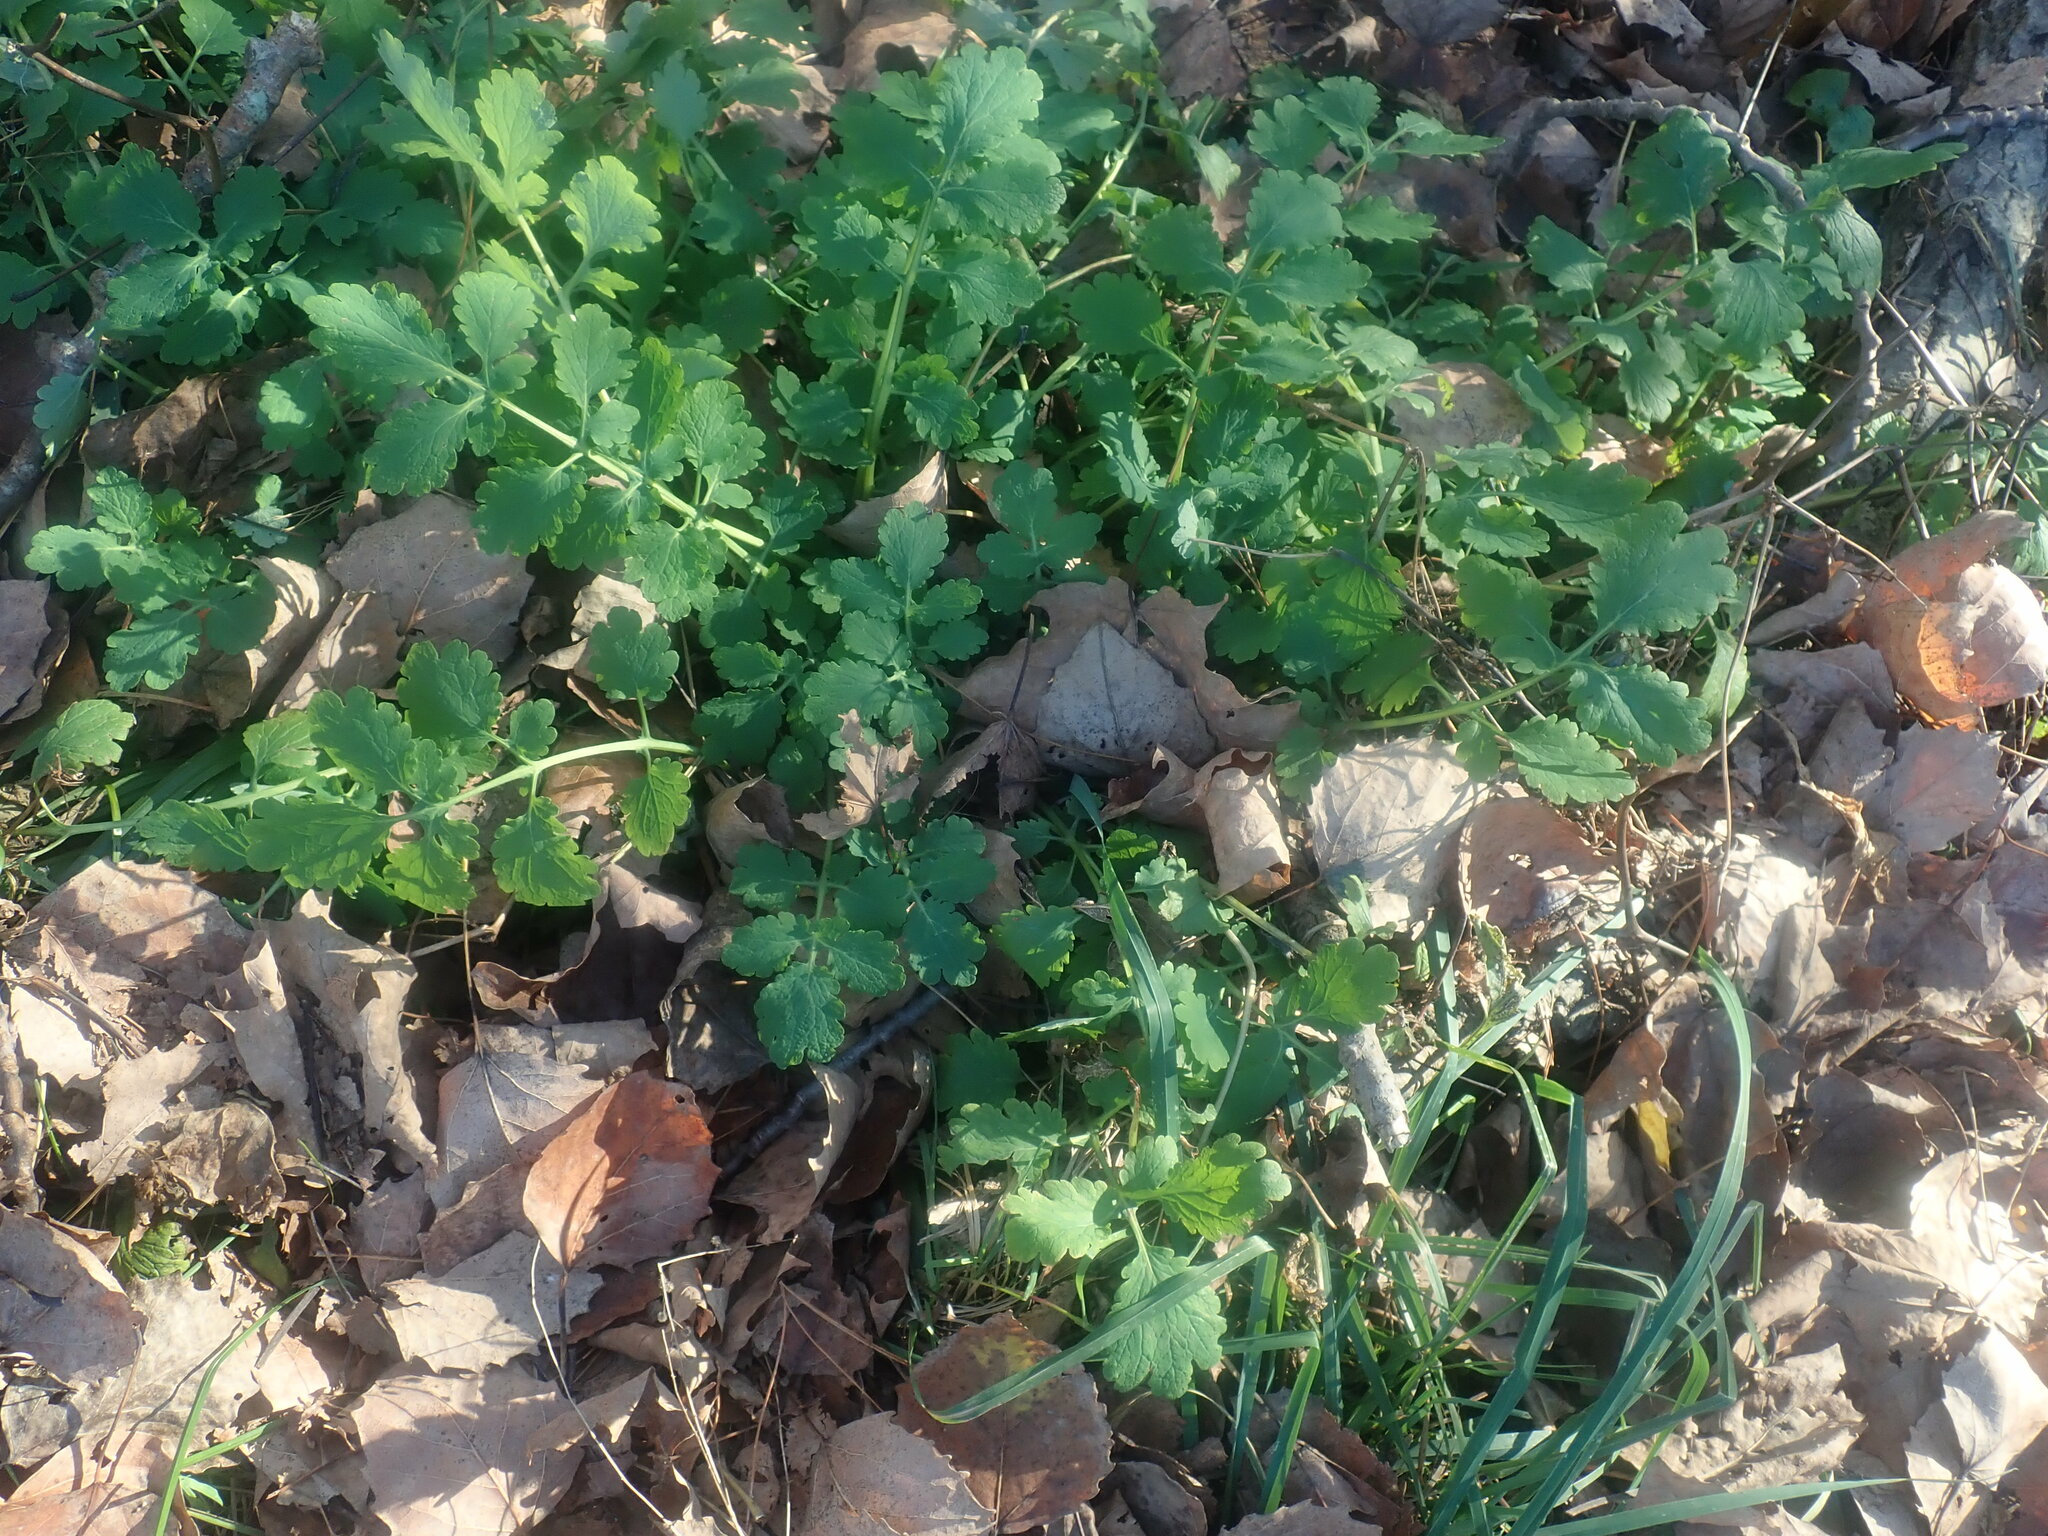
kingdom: Plantae
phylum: Tracheophyta
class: Magnoliopsida
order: Ranunculales
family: Papaveraceae
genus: Chelidonium
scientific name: Chelidonium majus
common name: Greater celandine
